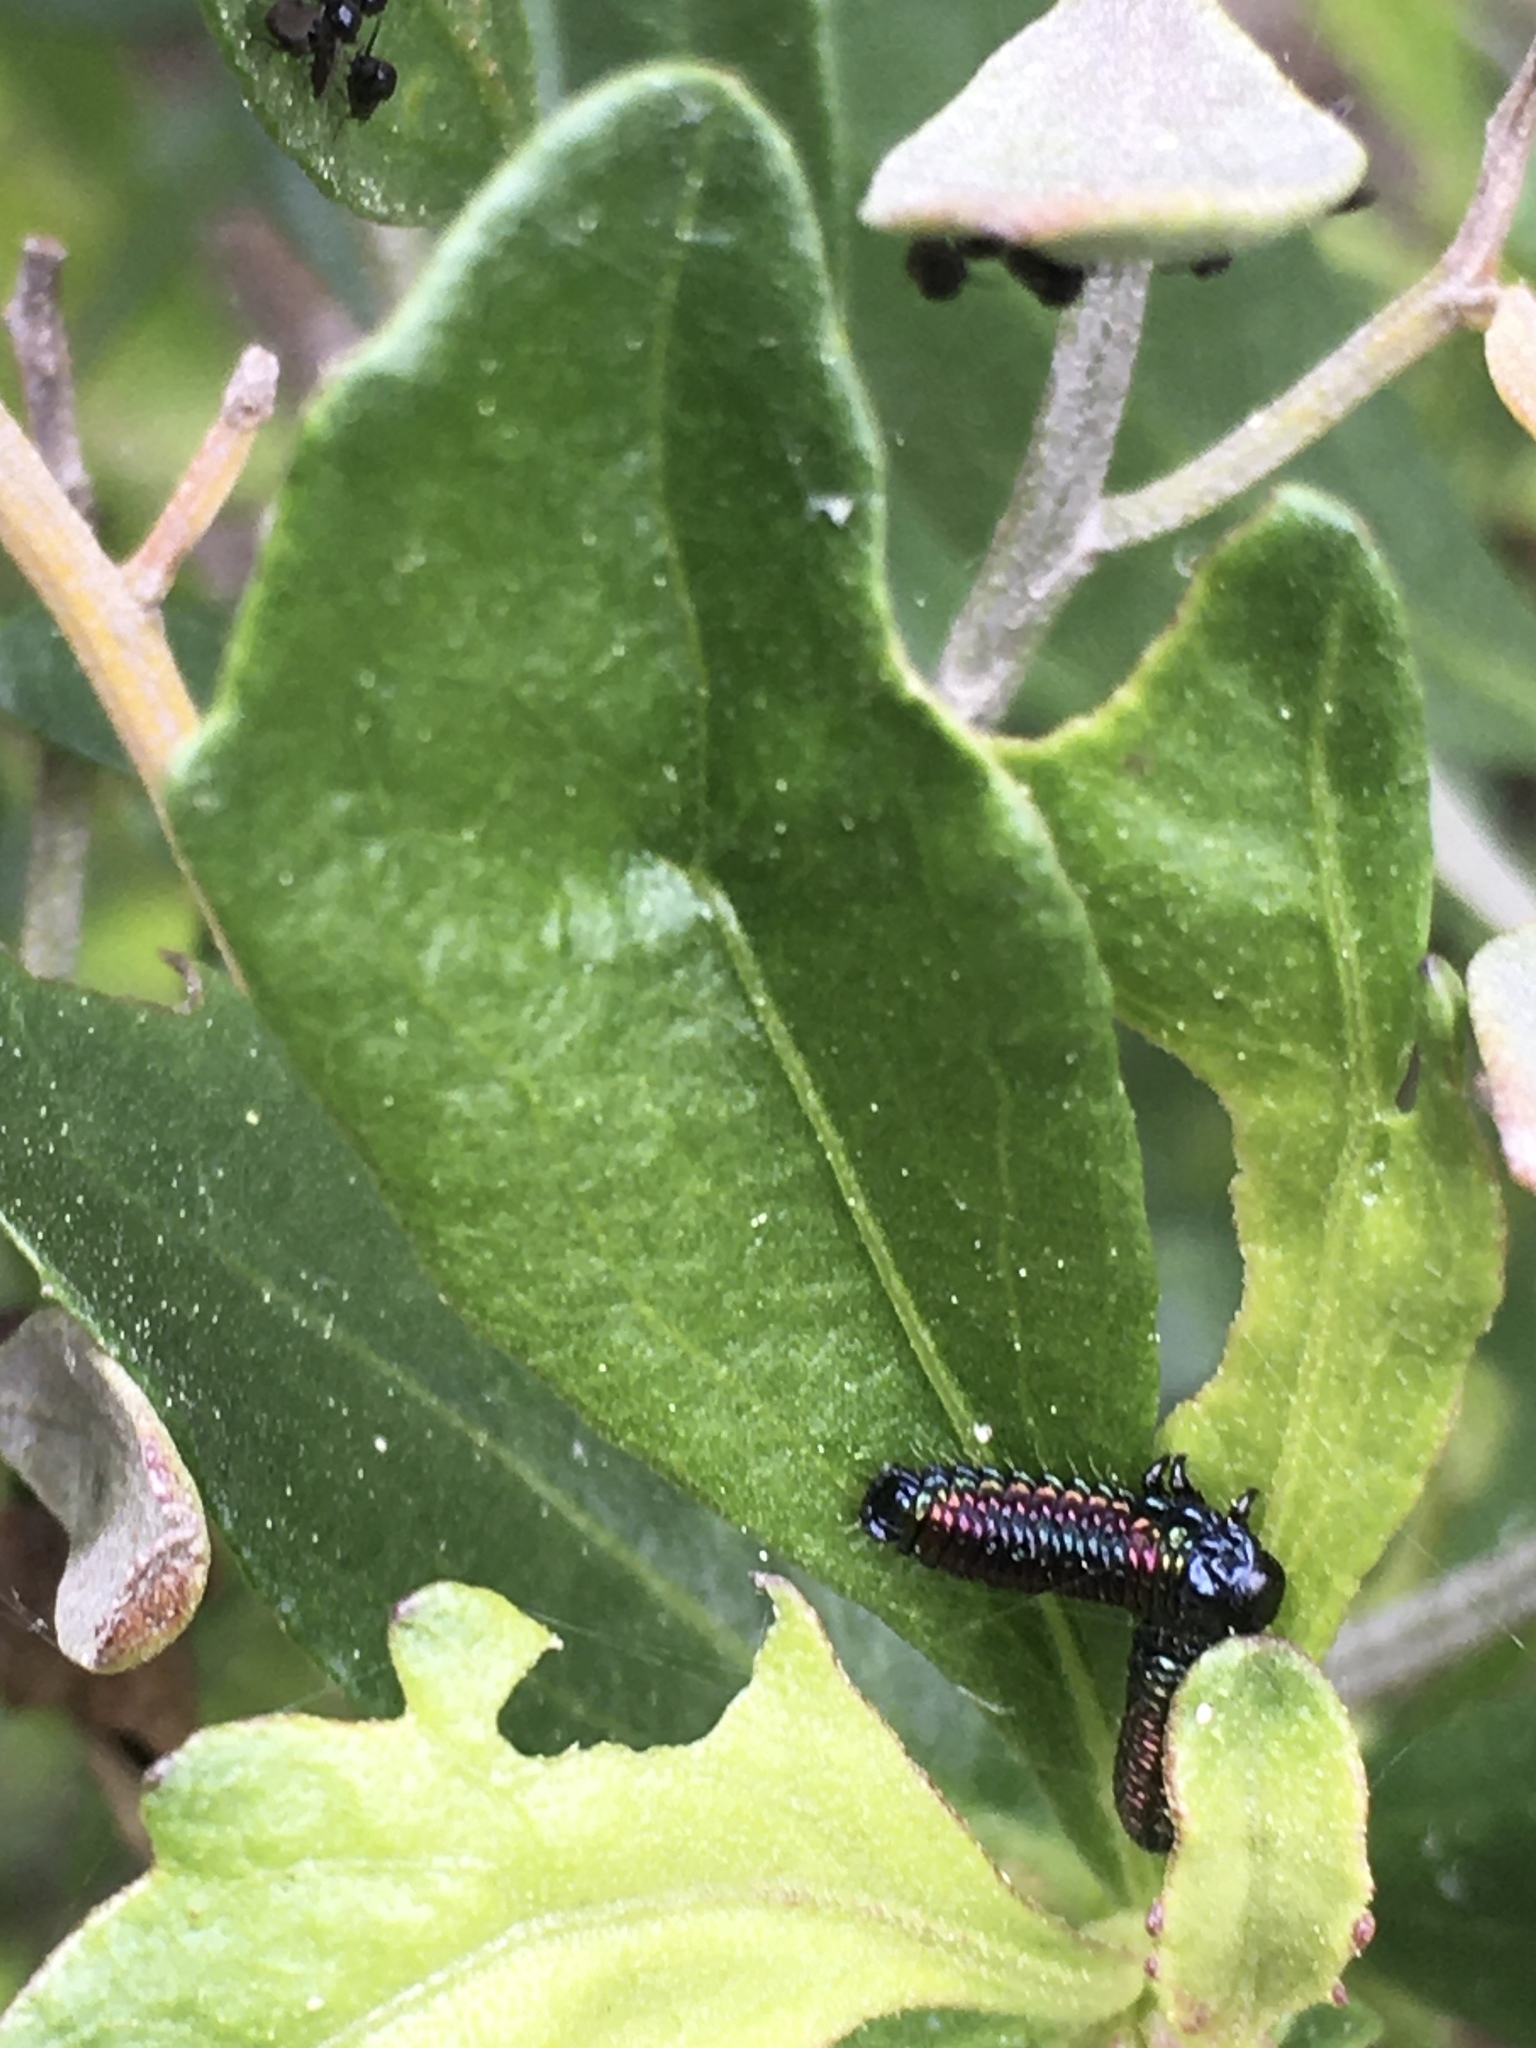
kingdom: Animalia
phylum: Arthropoda
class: Insecta
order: Coleoptera
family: Chrysomelidae
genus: Trirhabda
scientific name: Trirhabda bacharidis
